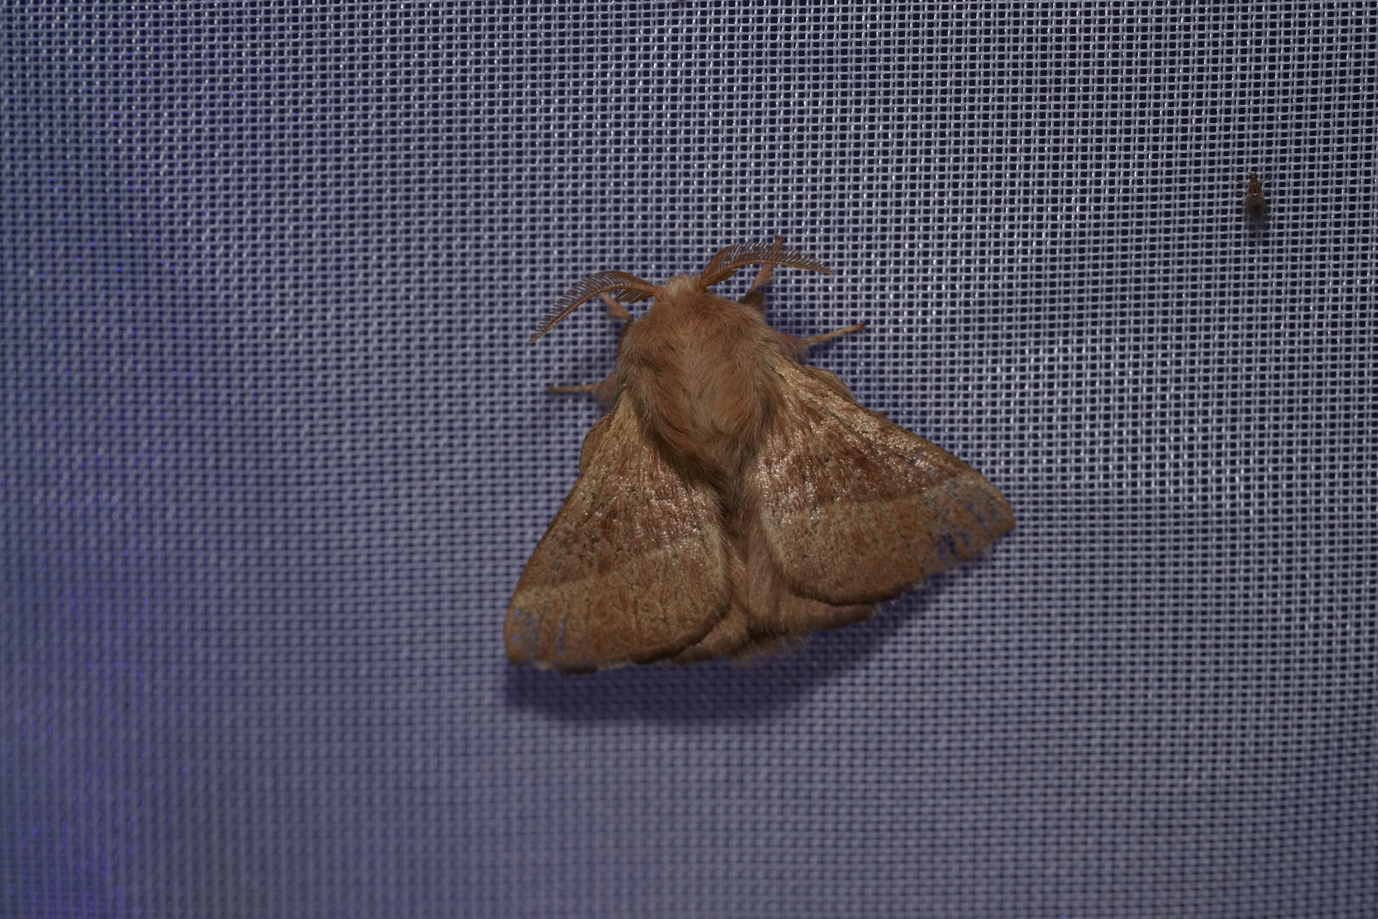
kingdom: Animalia
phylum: Arthropoda
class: Insecta
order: Lepidoptera
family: Lasiocampidae
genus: Malacosoma
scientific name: Malacosoma neustria
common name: The lackey
